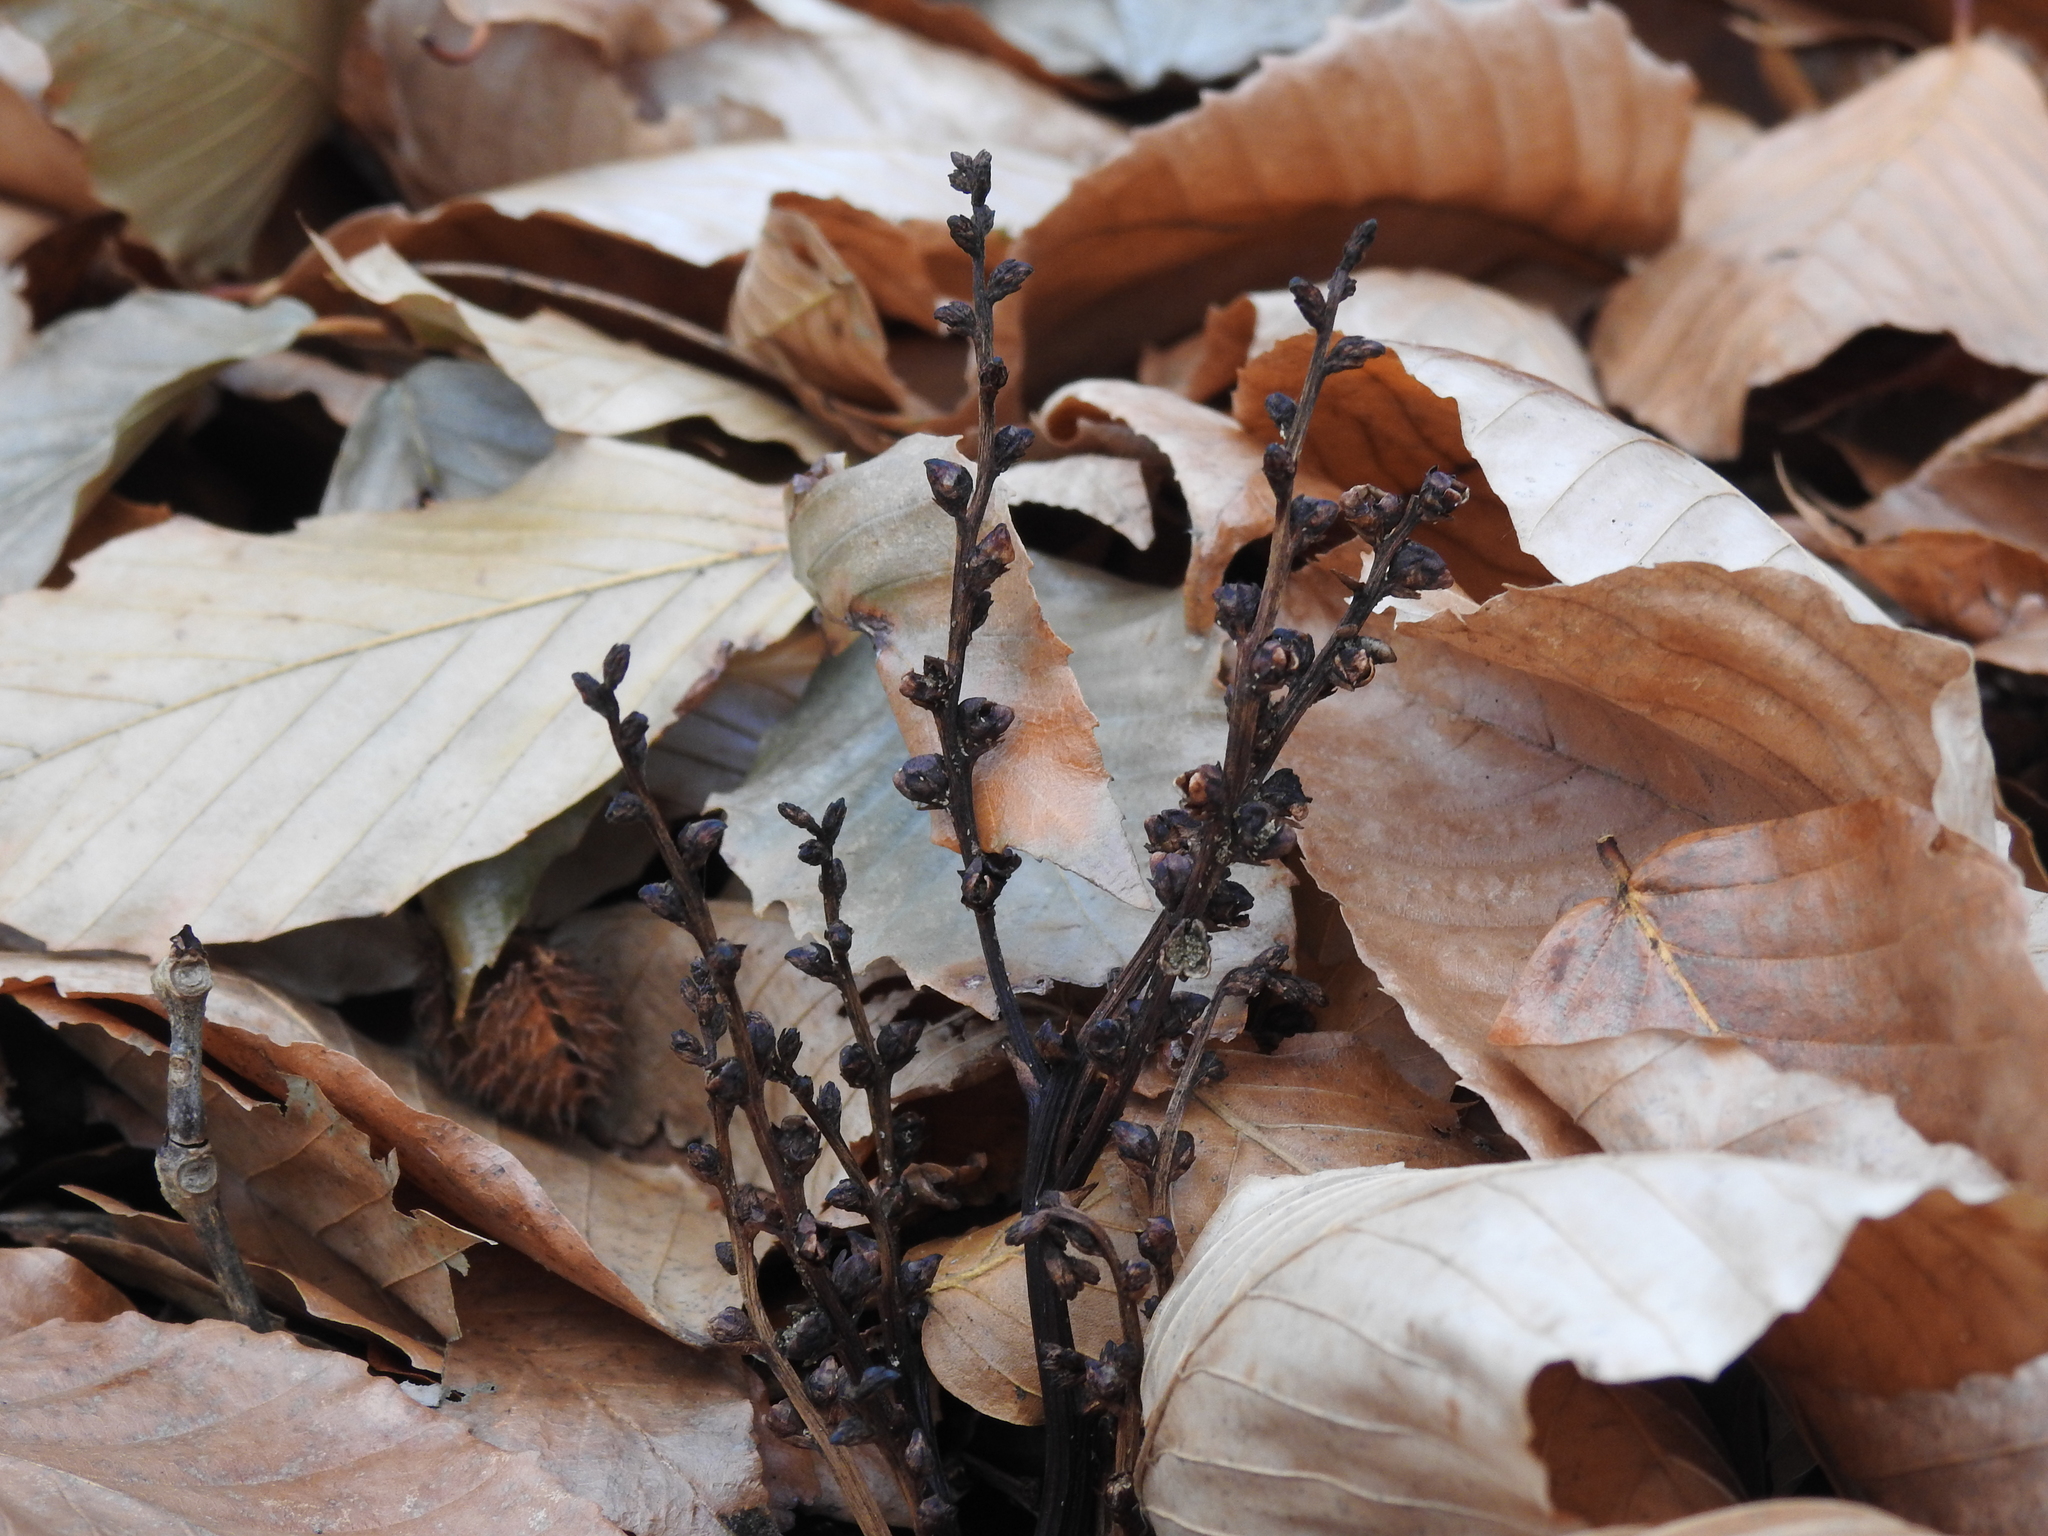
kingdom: Plantae
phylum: Tracheophyta
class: Magnoliopsida
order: Lamiales
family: Orobanchaceae
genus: Epifagus
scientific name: Epifagus virginiana
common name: Beechdrops
